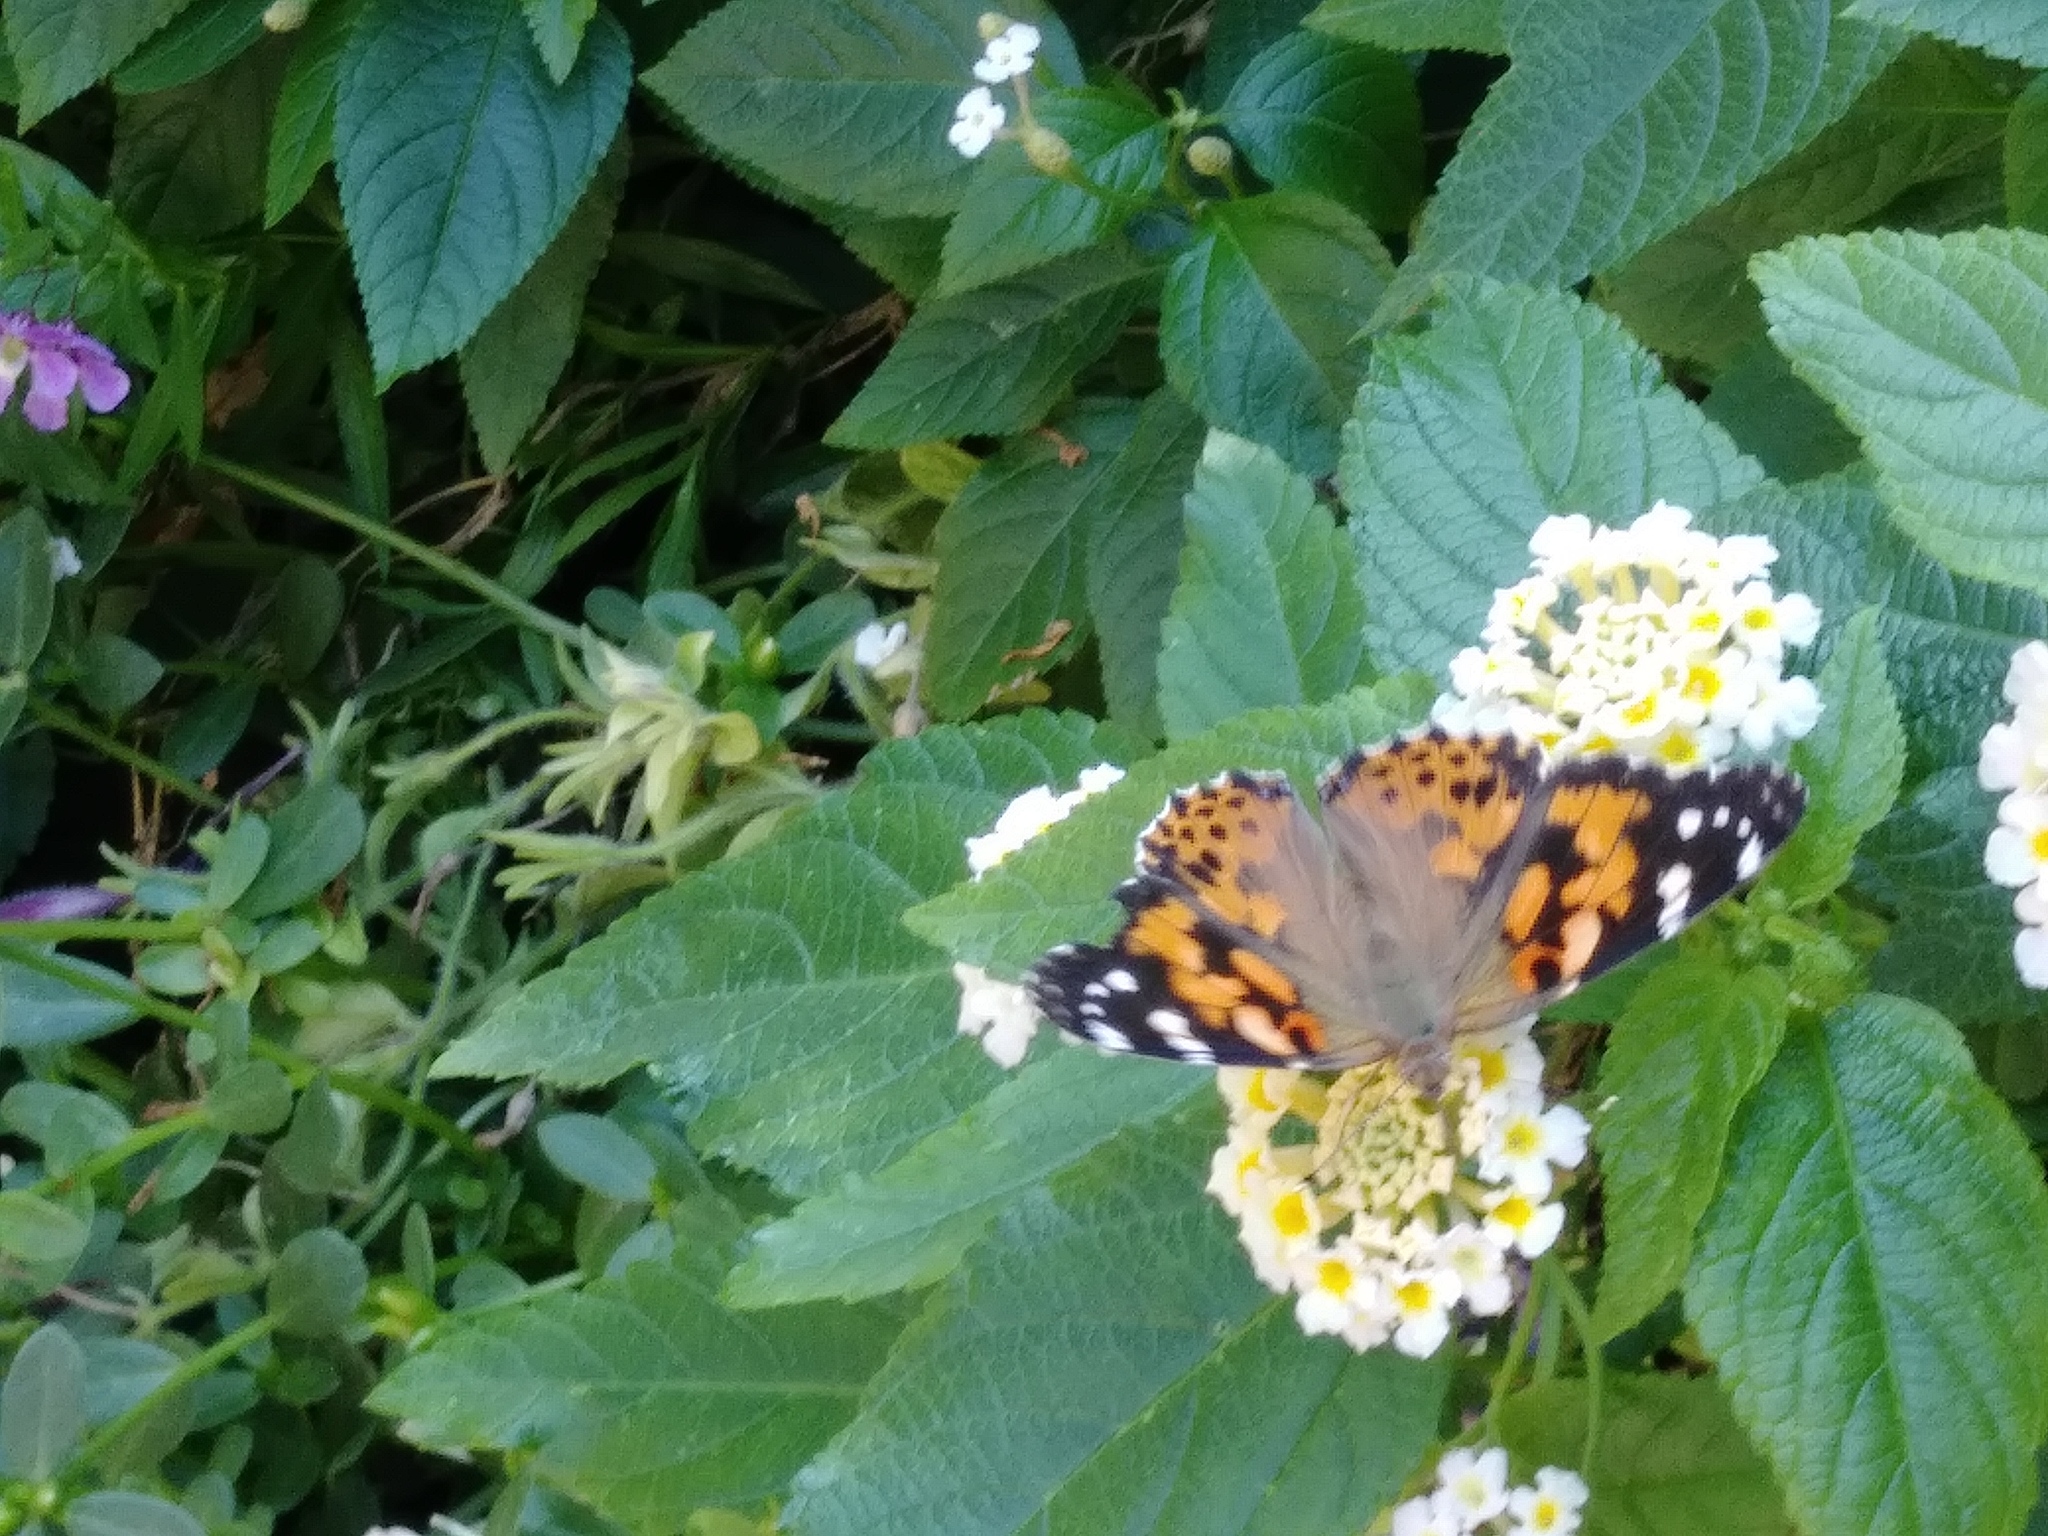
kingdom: Animalia
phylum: Arthropoda
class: Insecta
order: Lepidoptera
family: Nymphalidae
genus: Vanessa
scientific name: Vanessa cardui
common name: Painted lady
